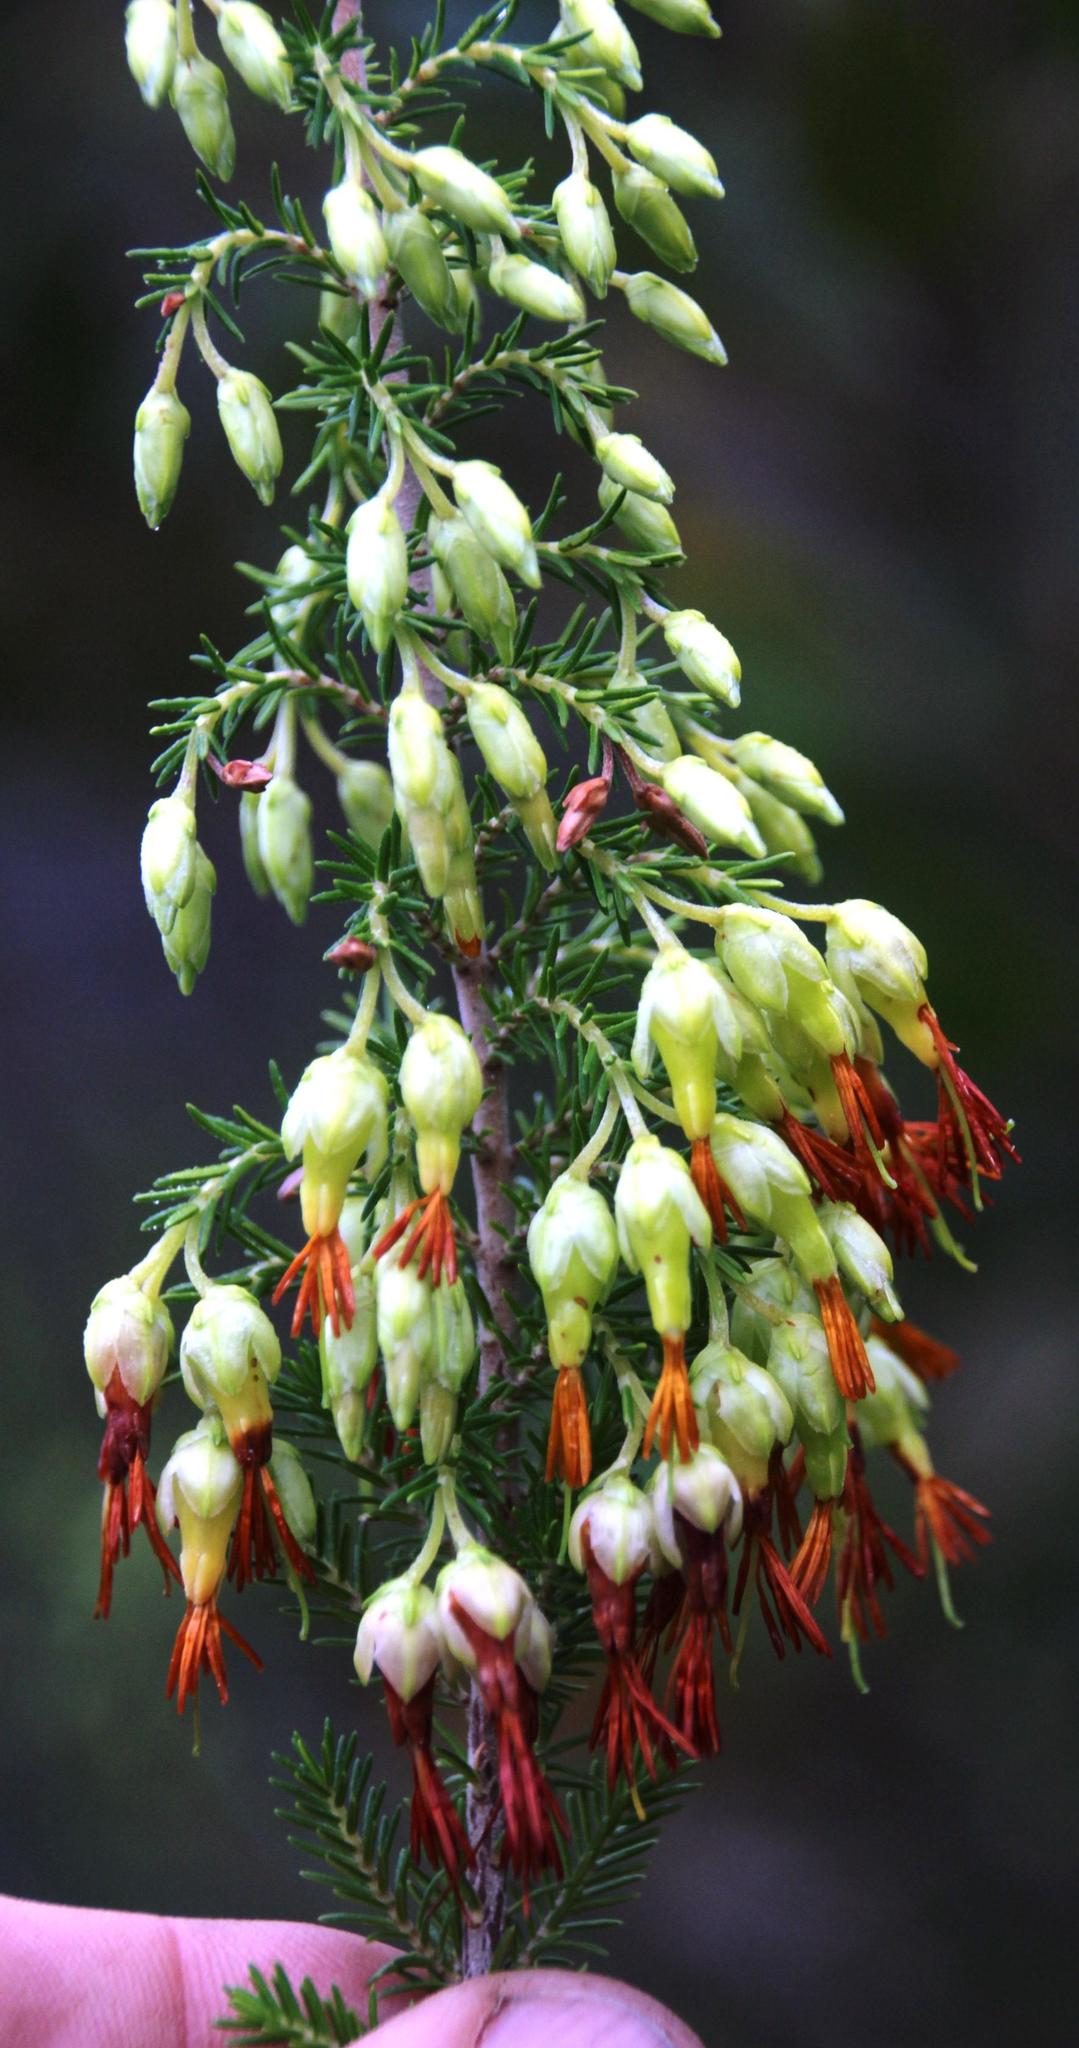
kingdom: Plantae
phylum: Tracheophyta
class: Magnoliopsida
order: Ericales
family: Ericaceae
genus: Erica
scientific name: Erica coccinea
